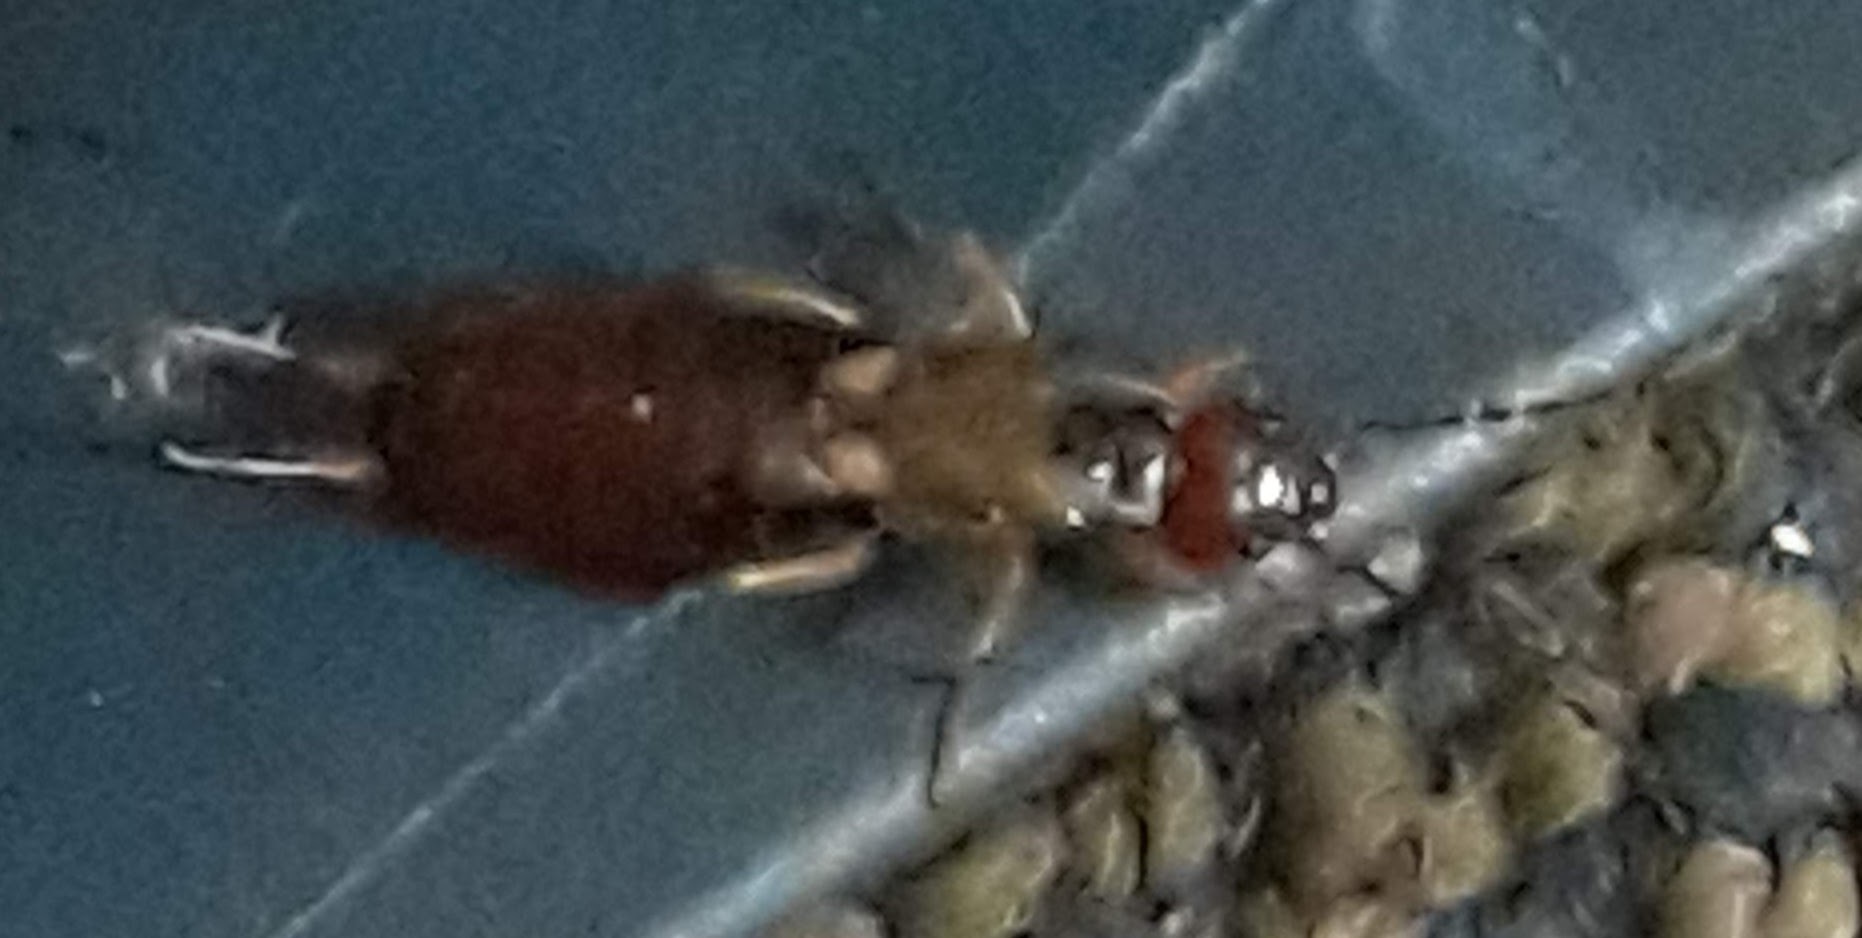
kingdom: Animalia
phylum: Arthropoda
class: Insecta
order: Dermaptera
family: Forficulidae
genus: Forficula
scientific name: Forficula
